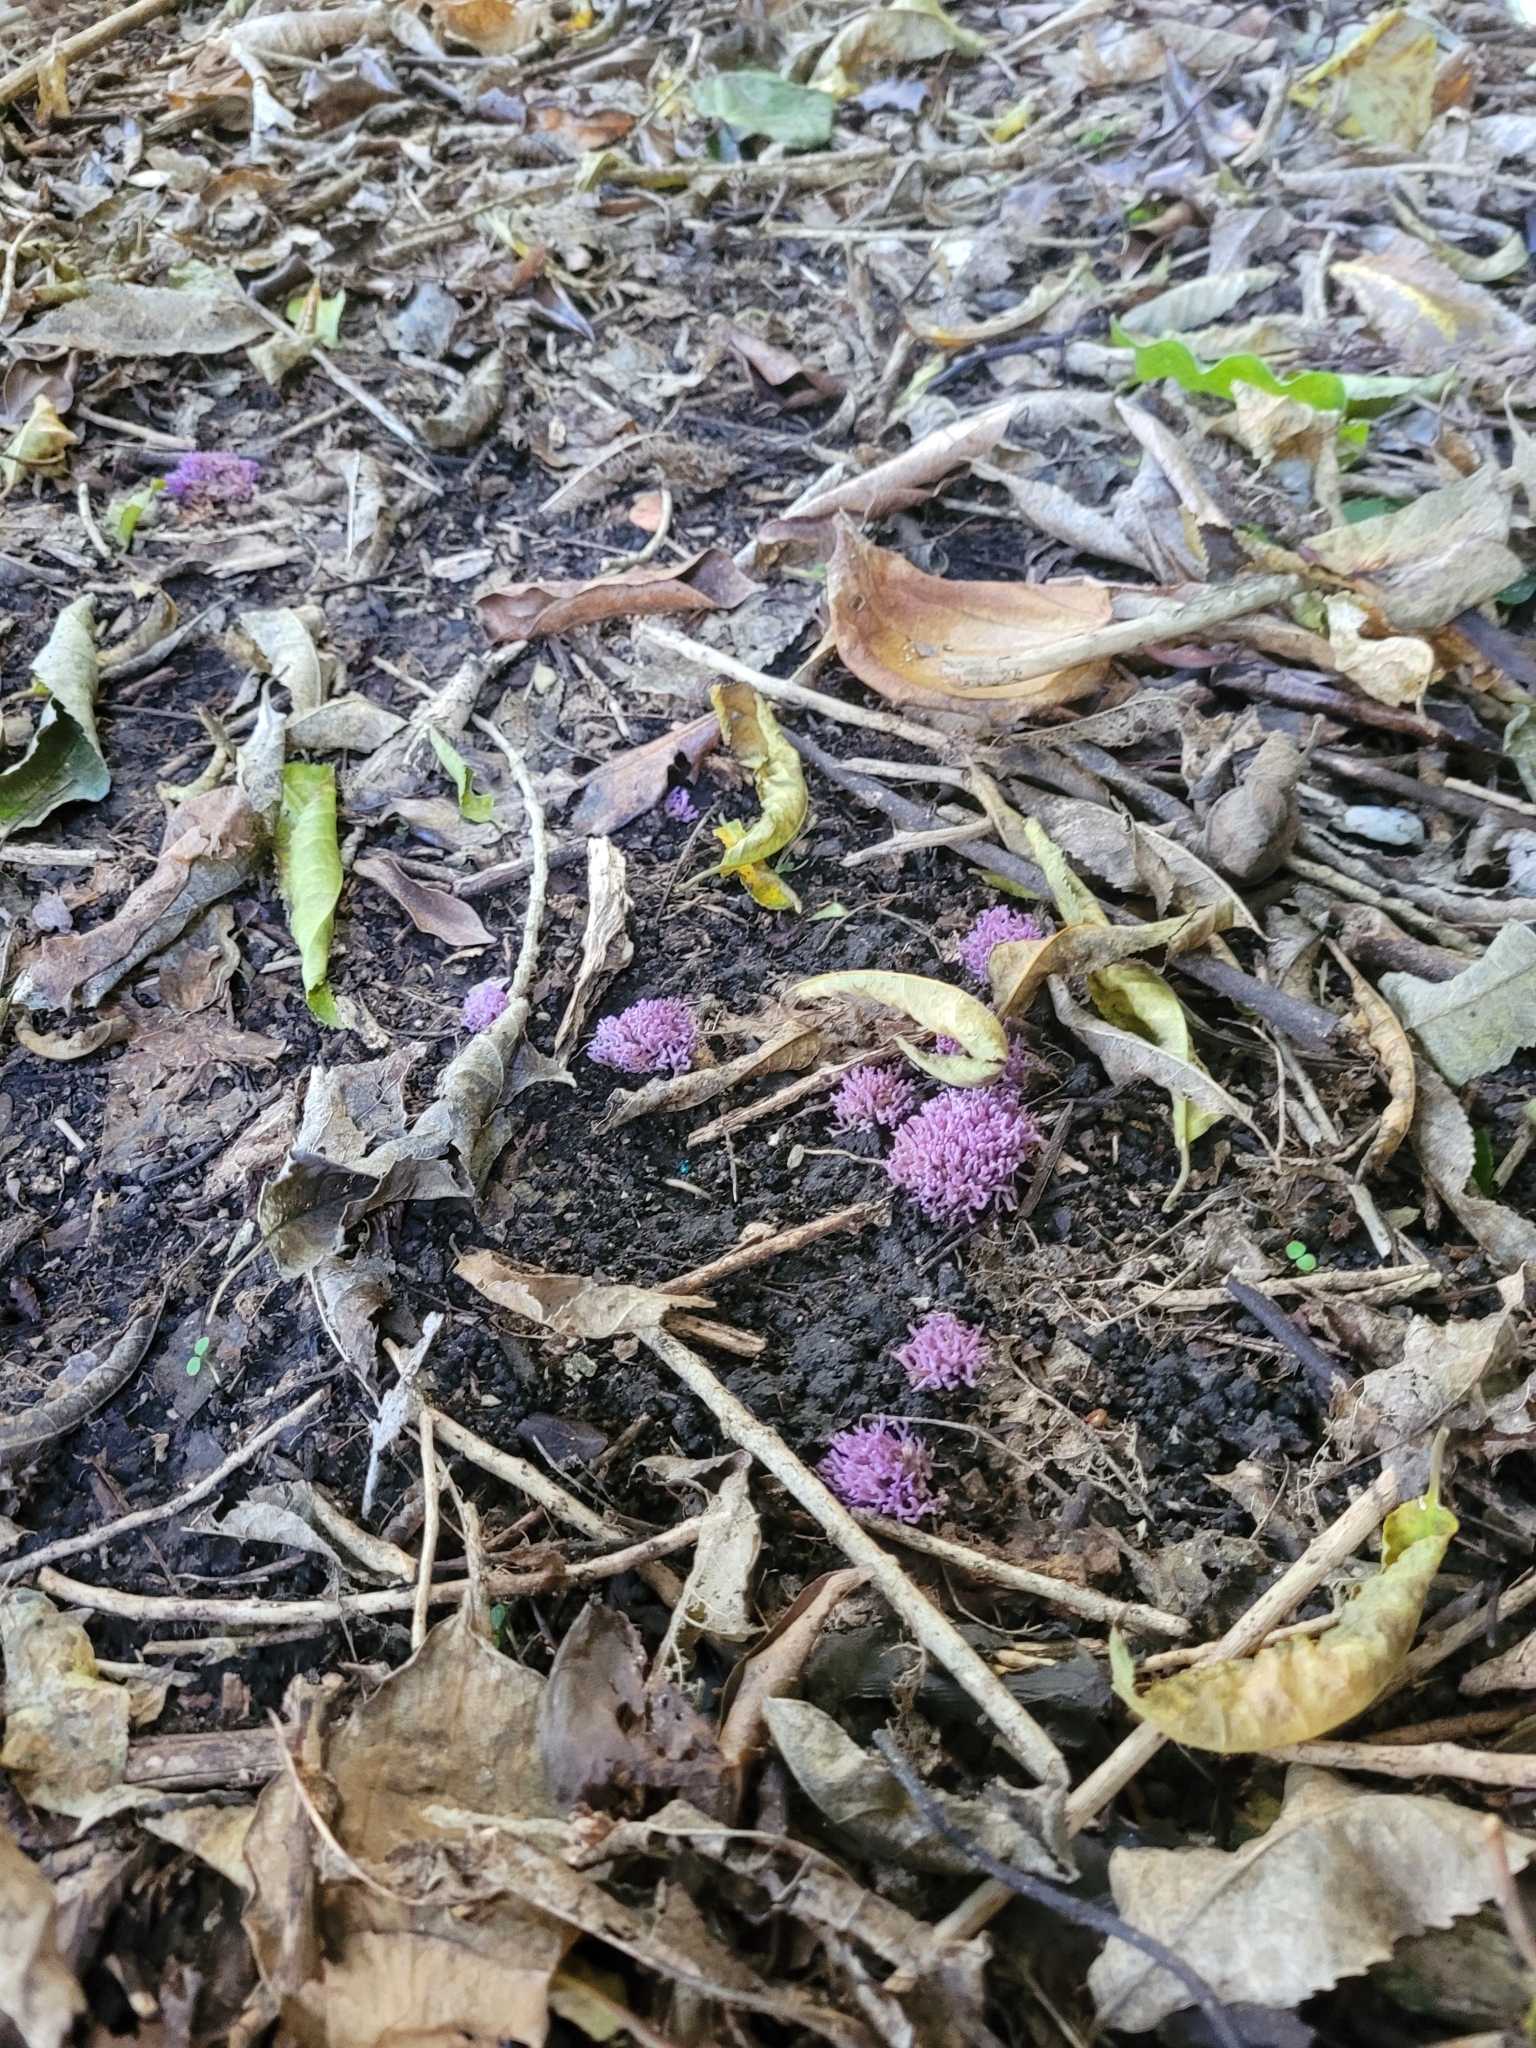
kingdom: Fungi
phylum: Basidiomycota
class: Agaricomycetes
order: Agaricales
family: Clavariaceae
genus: Ramariopsis
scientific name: Ramariopsis pulchella
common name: Lilac coral
